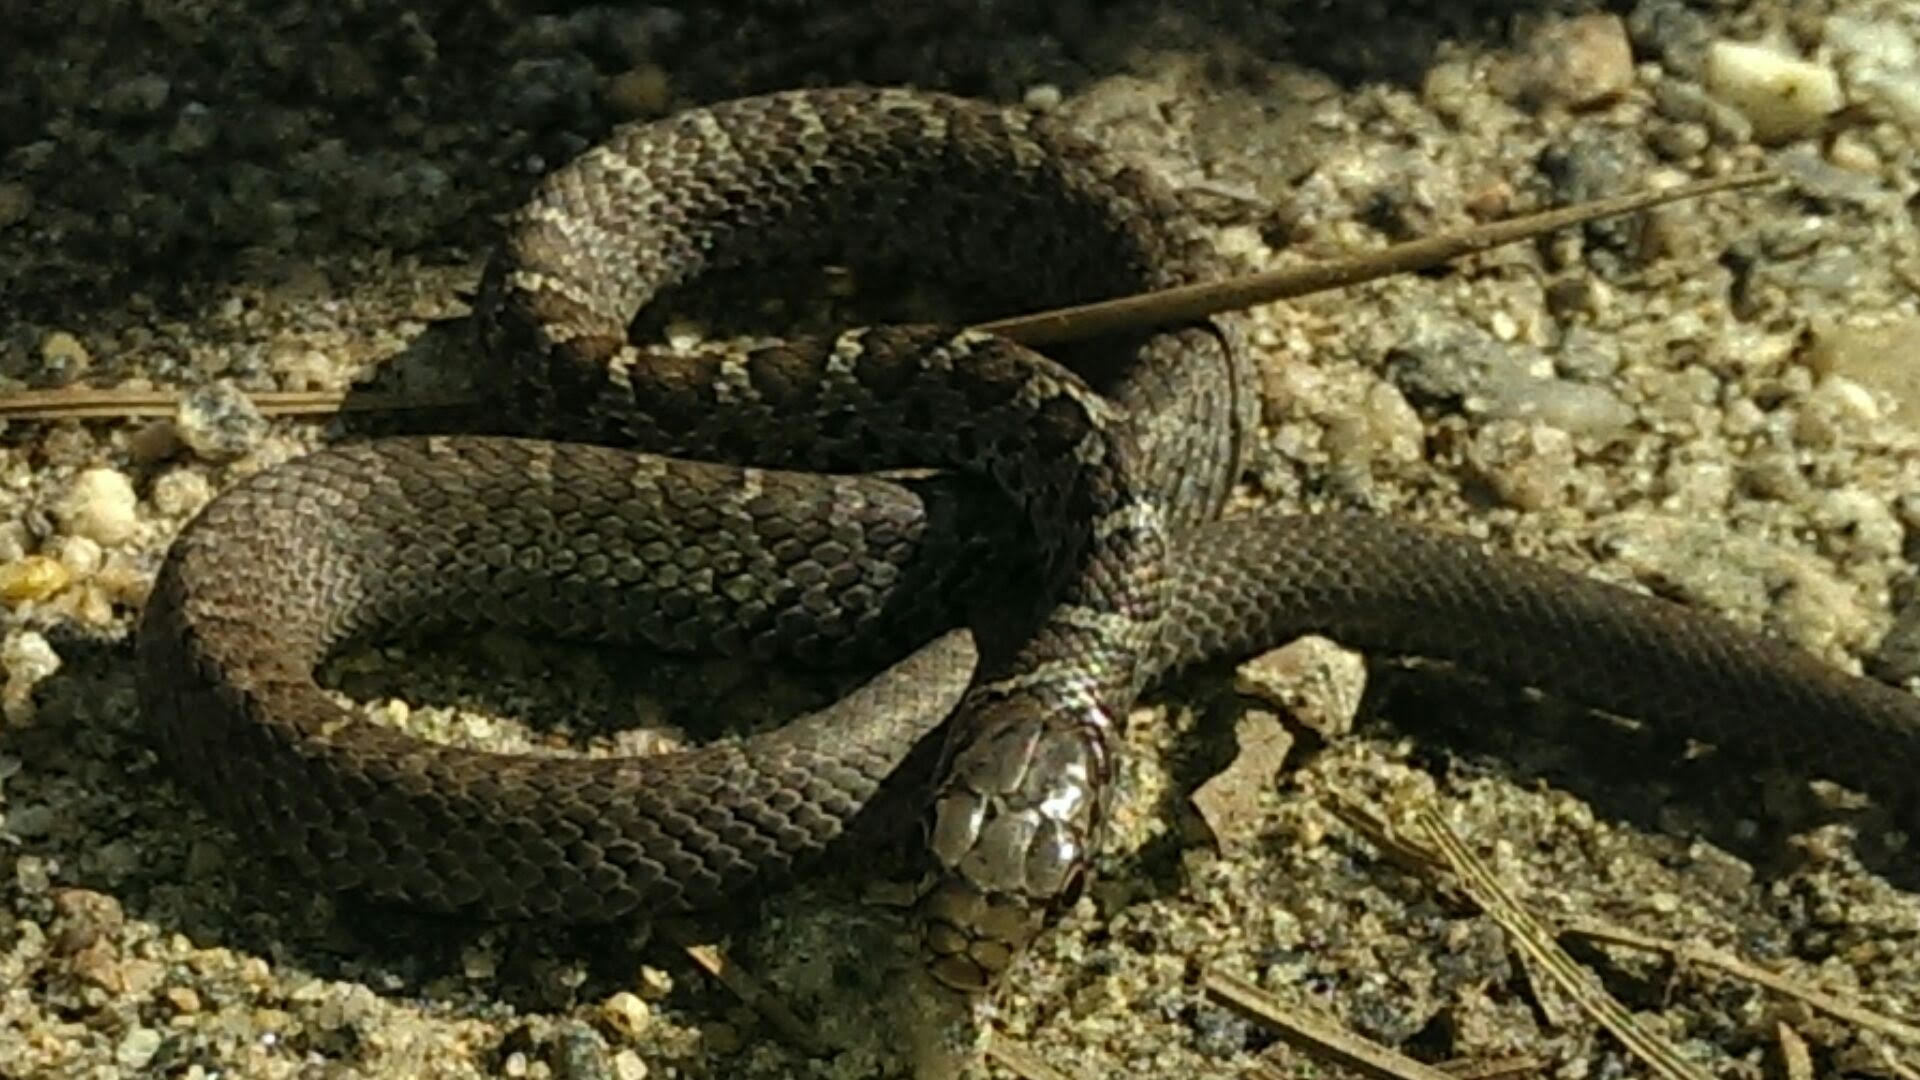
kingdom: Animalia
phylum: Chordata
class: Squamata
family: Colubridae
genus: Coluber
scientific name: Coluber constrictor
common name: Eastern racer
